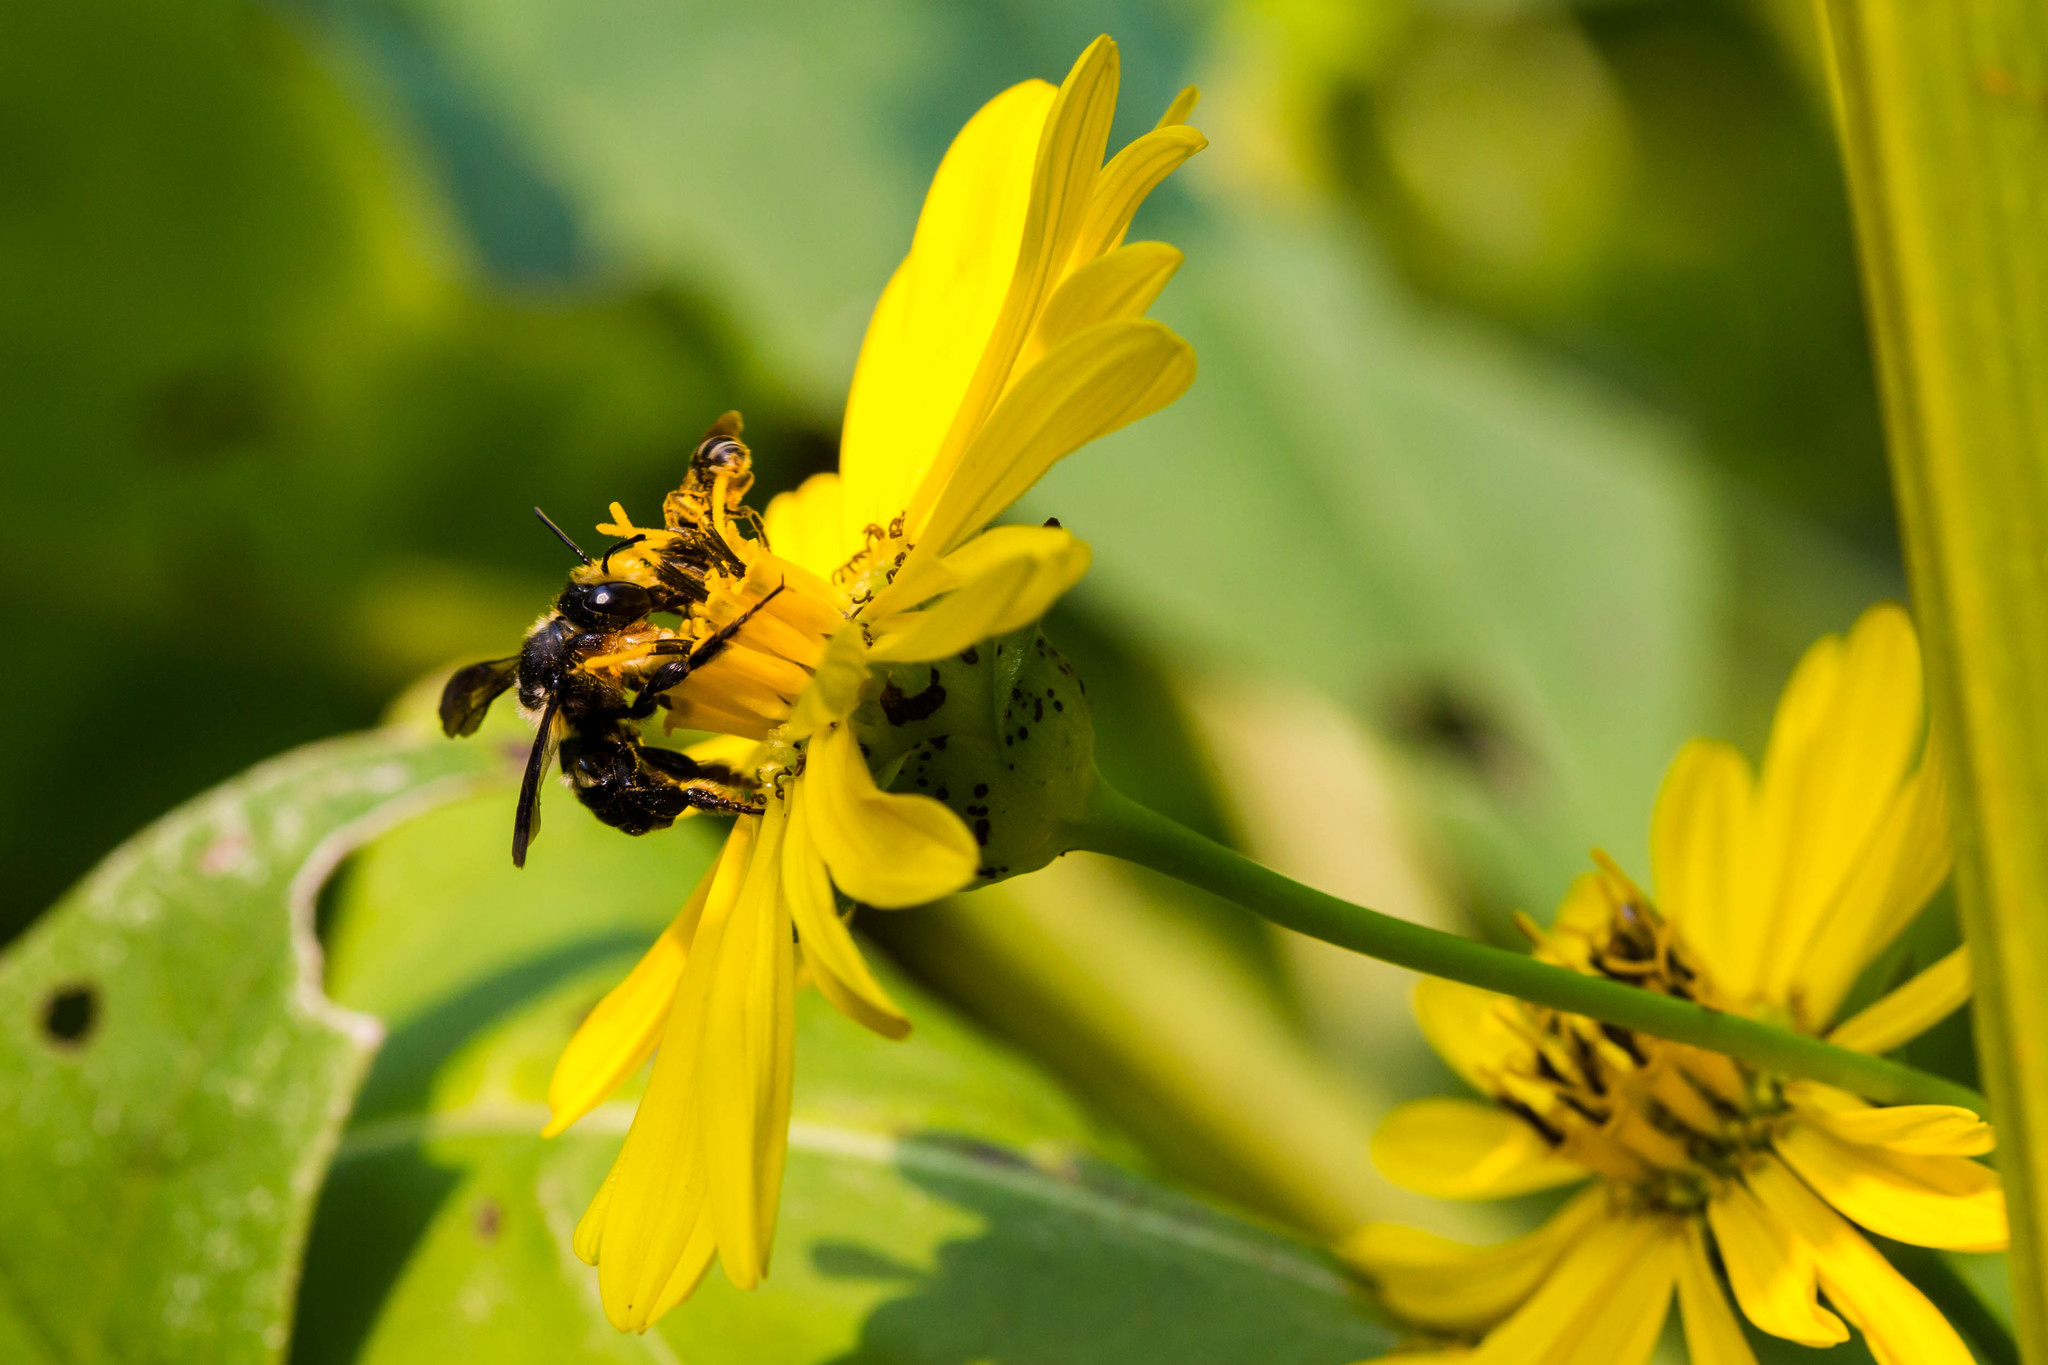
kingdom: Animalia
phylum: Arthropoda
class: Insecta
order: Hymenoptera
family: Megachilidae
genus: Megachile
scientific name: Megachile xylocopoides
